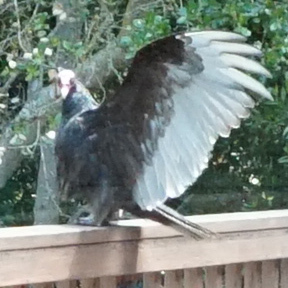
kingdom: Animalia
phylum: Chordata
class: Aves
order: Accipitriformes
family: Cathartidae
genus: Cathartes
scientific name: Cathartes aura
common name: Turkey vulture
